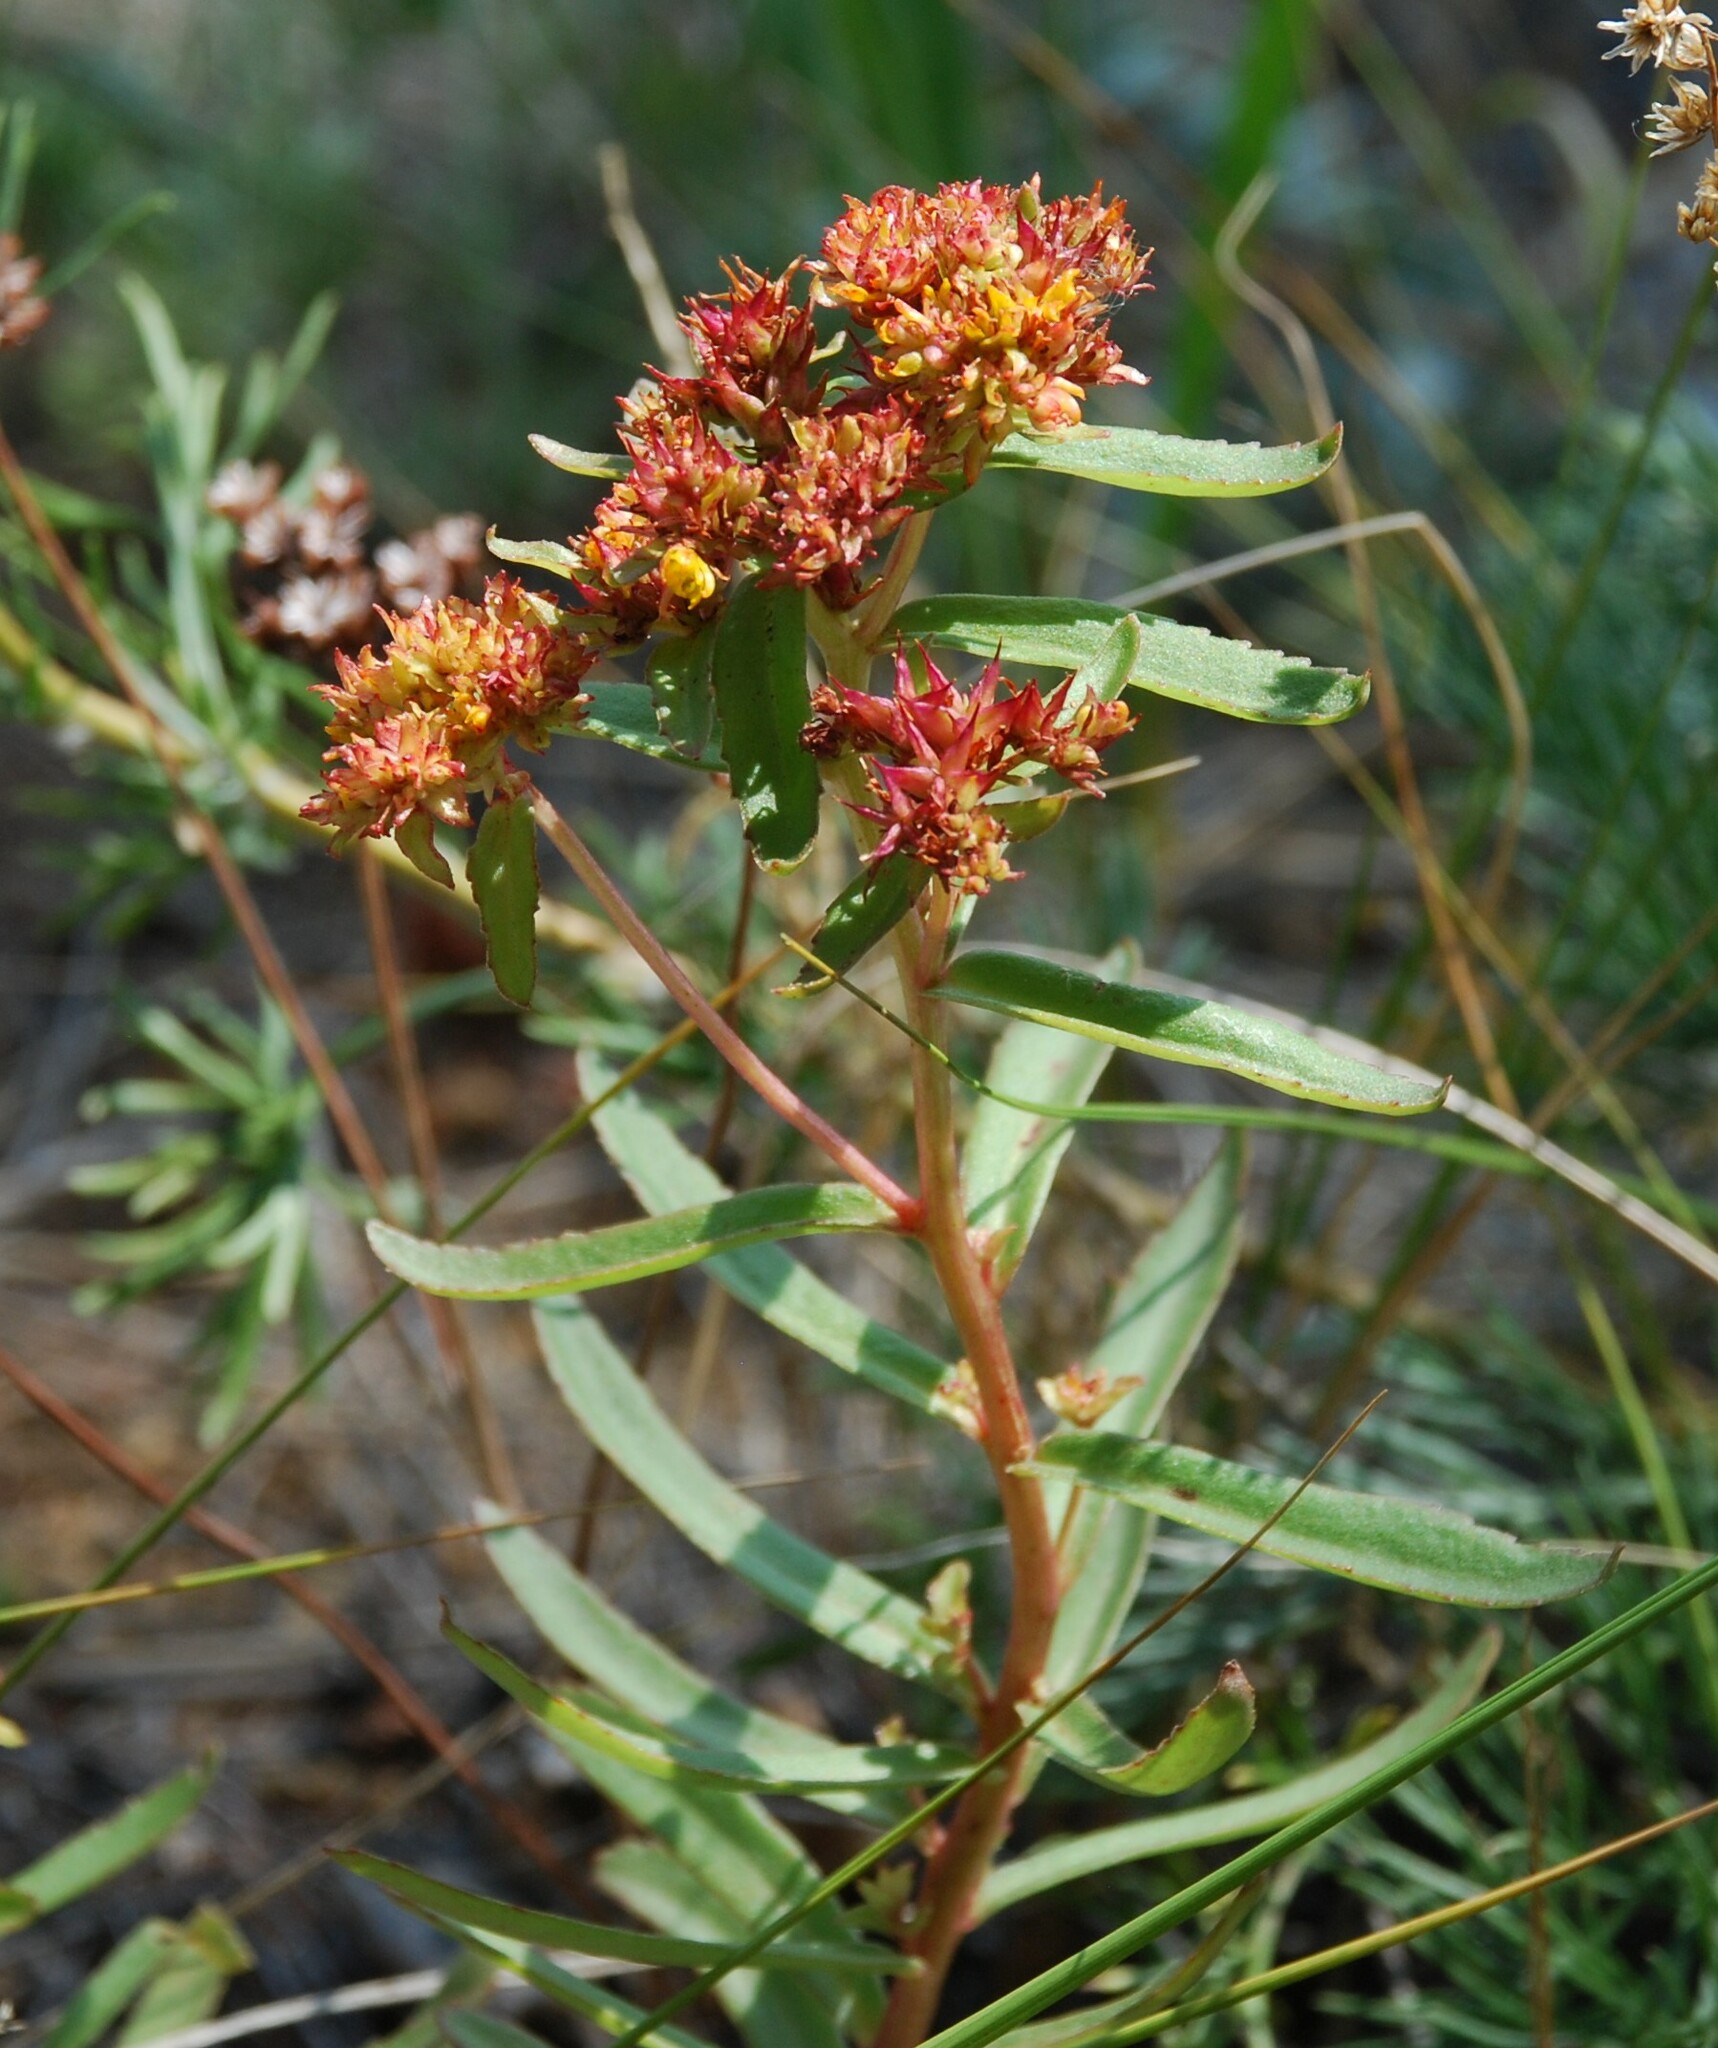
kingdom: Plantae
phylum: Tracheophyta
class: Magnoliopsida
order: Saxifragales
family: Crassulaceae
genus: Phedimus
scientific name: Phedimus aizoon
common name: Orpin aizoon
